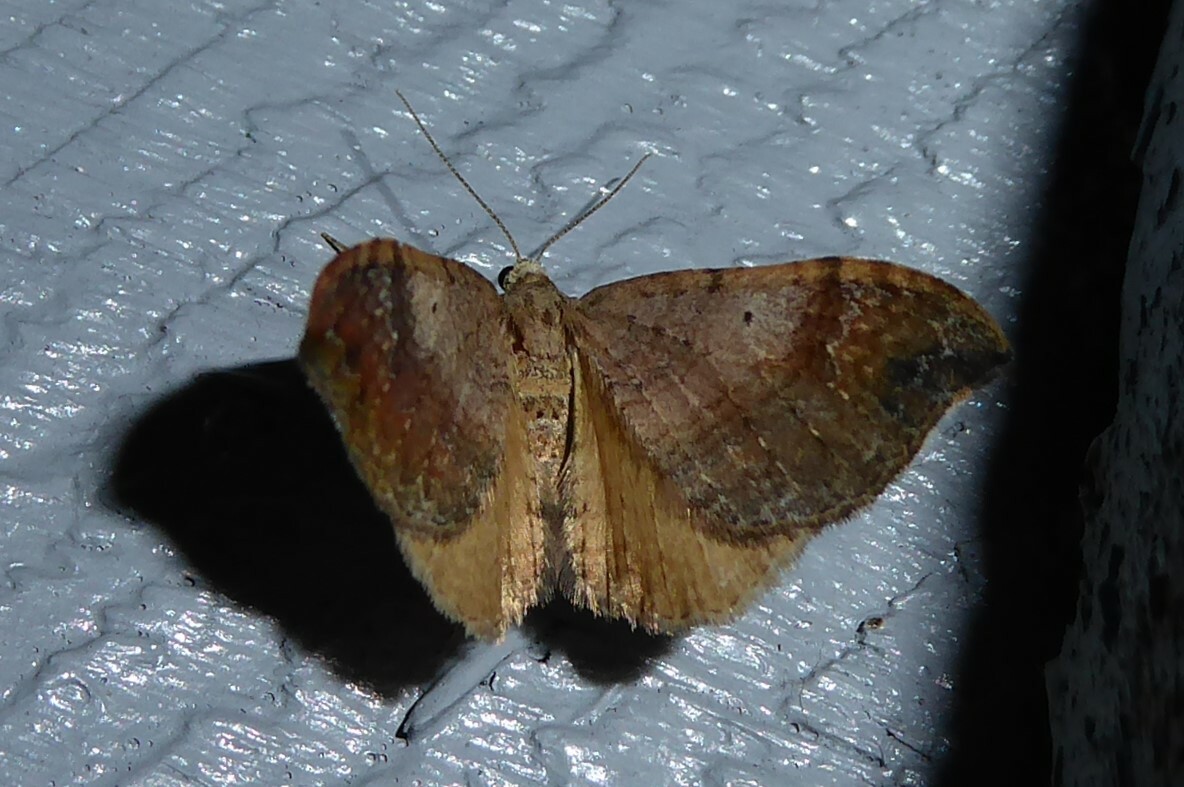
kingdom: Animalia
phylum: Arthropoda
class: Insecta
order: Lepidoptera
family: Geometridae
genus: Homodotis
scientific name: Homodotis megaspilata
